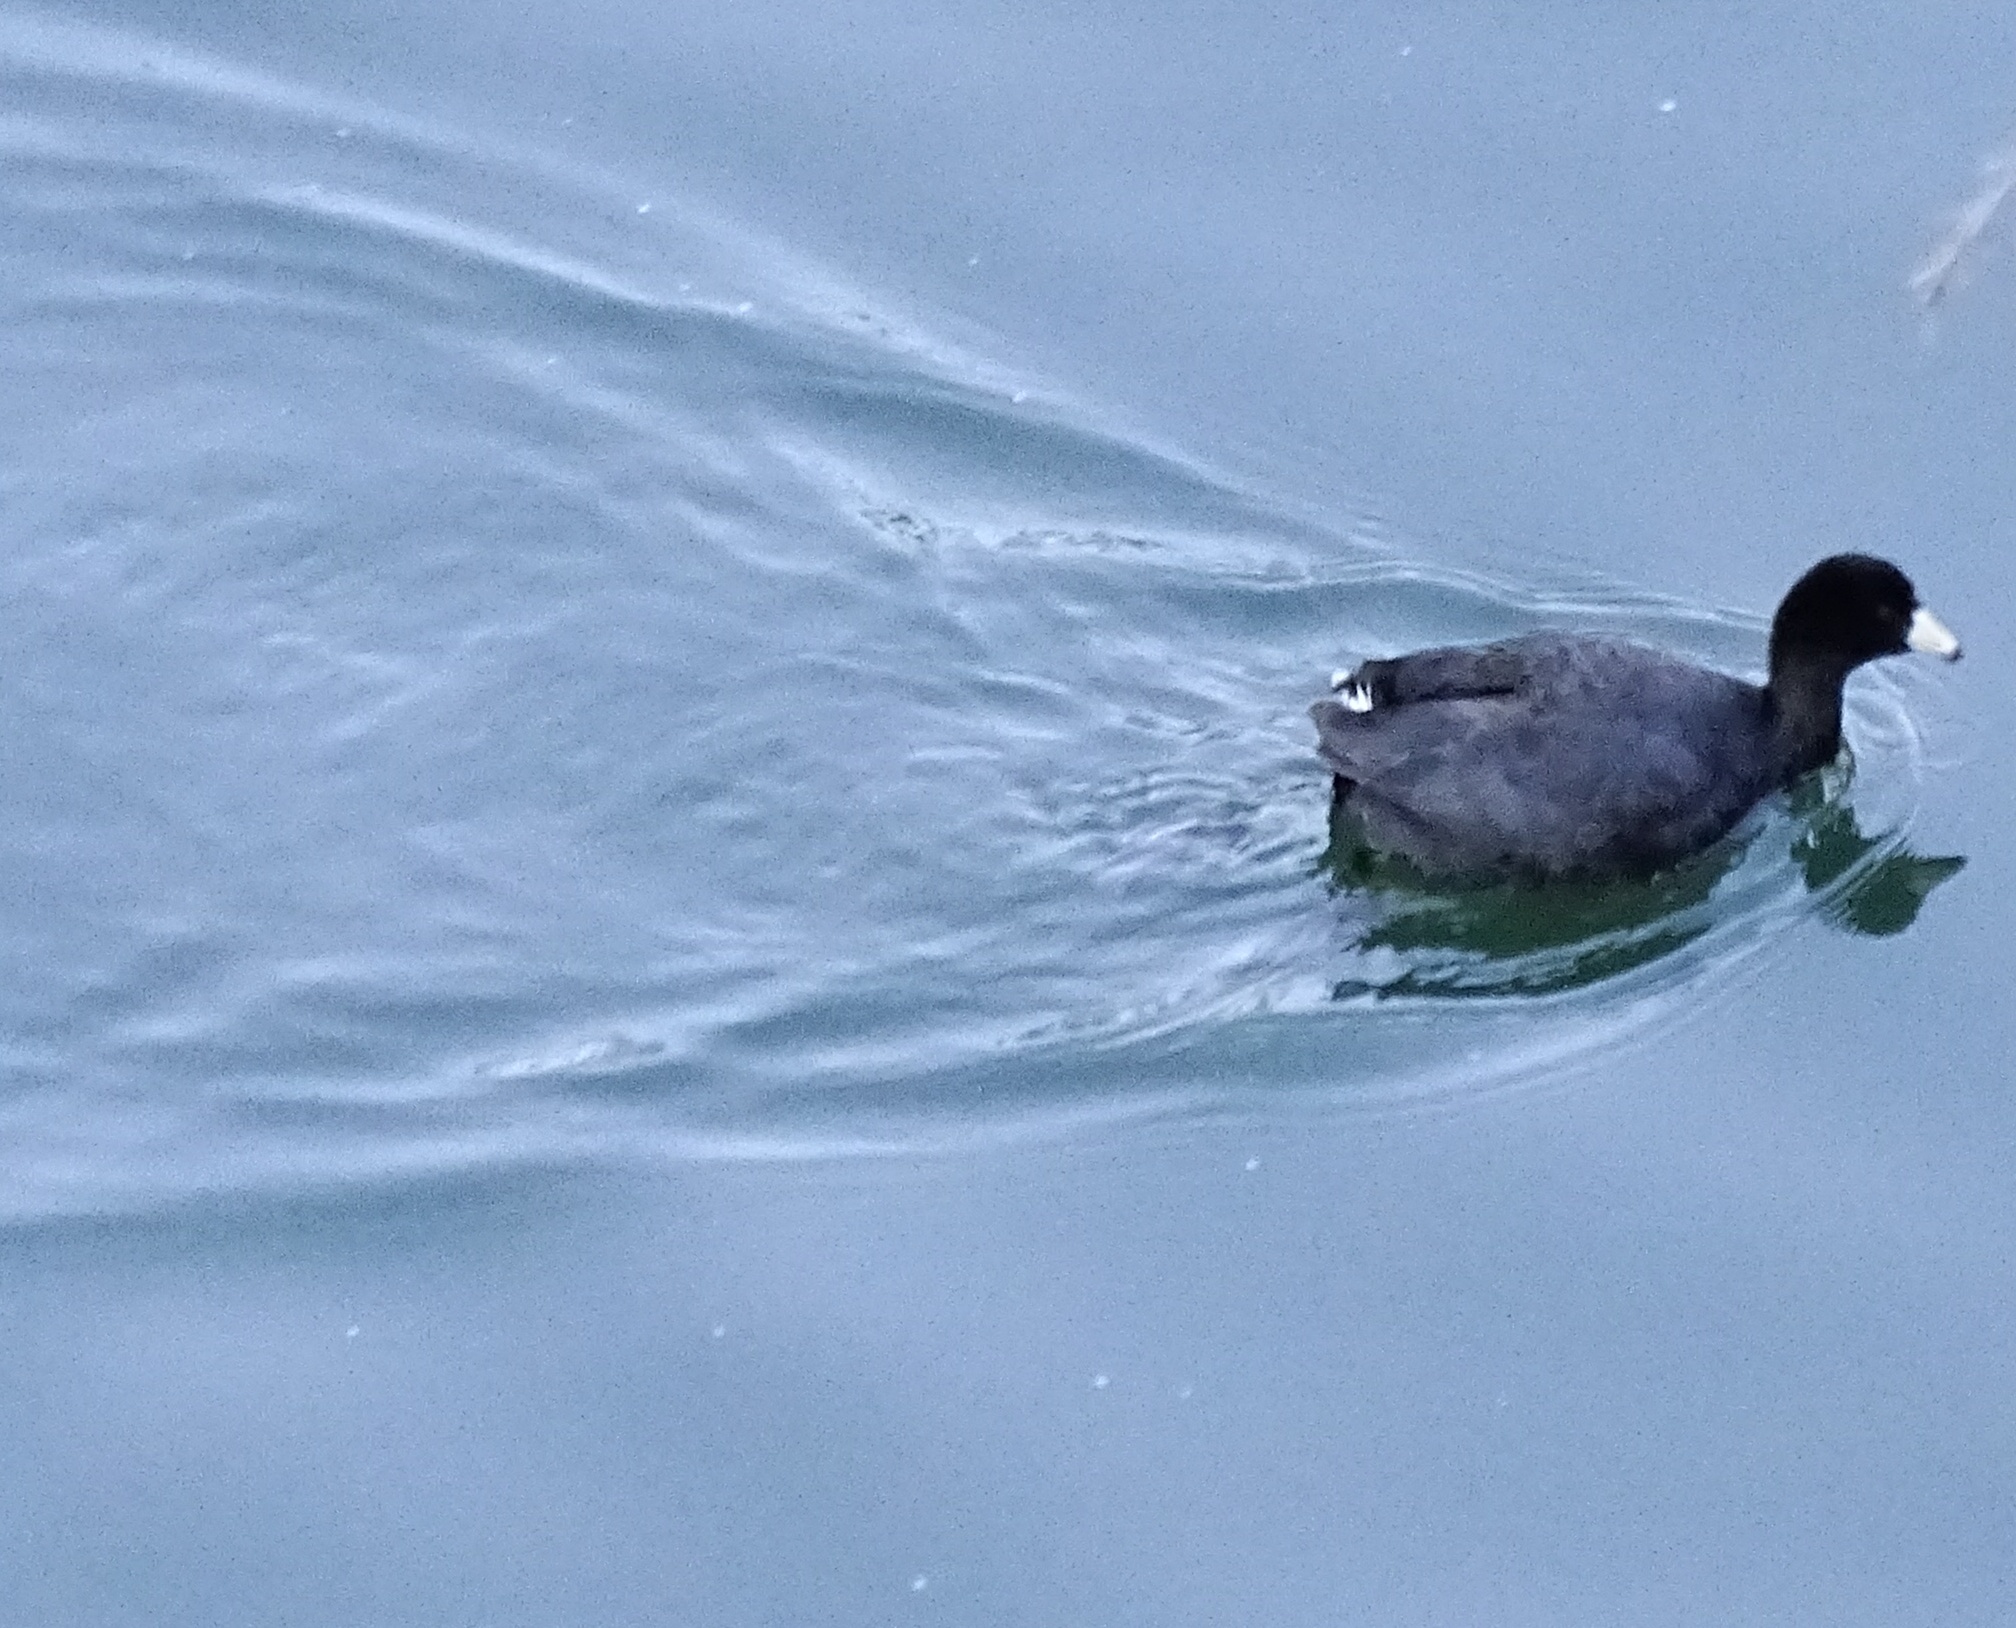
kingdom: Animalia
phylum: Chordata
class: Aves
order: Gruiformes
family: Rallidae
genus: Fulica
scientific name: Fulica americana
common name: American coot
